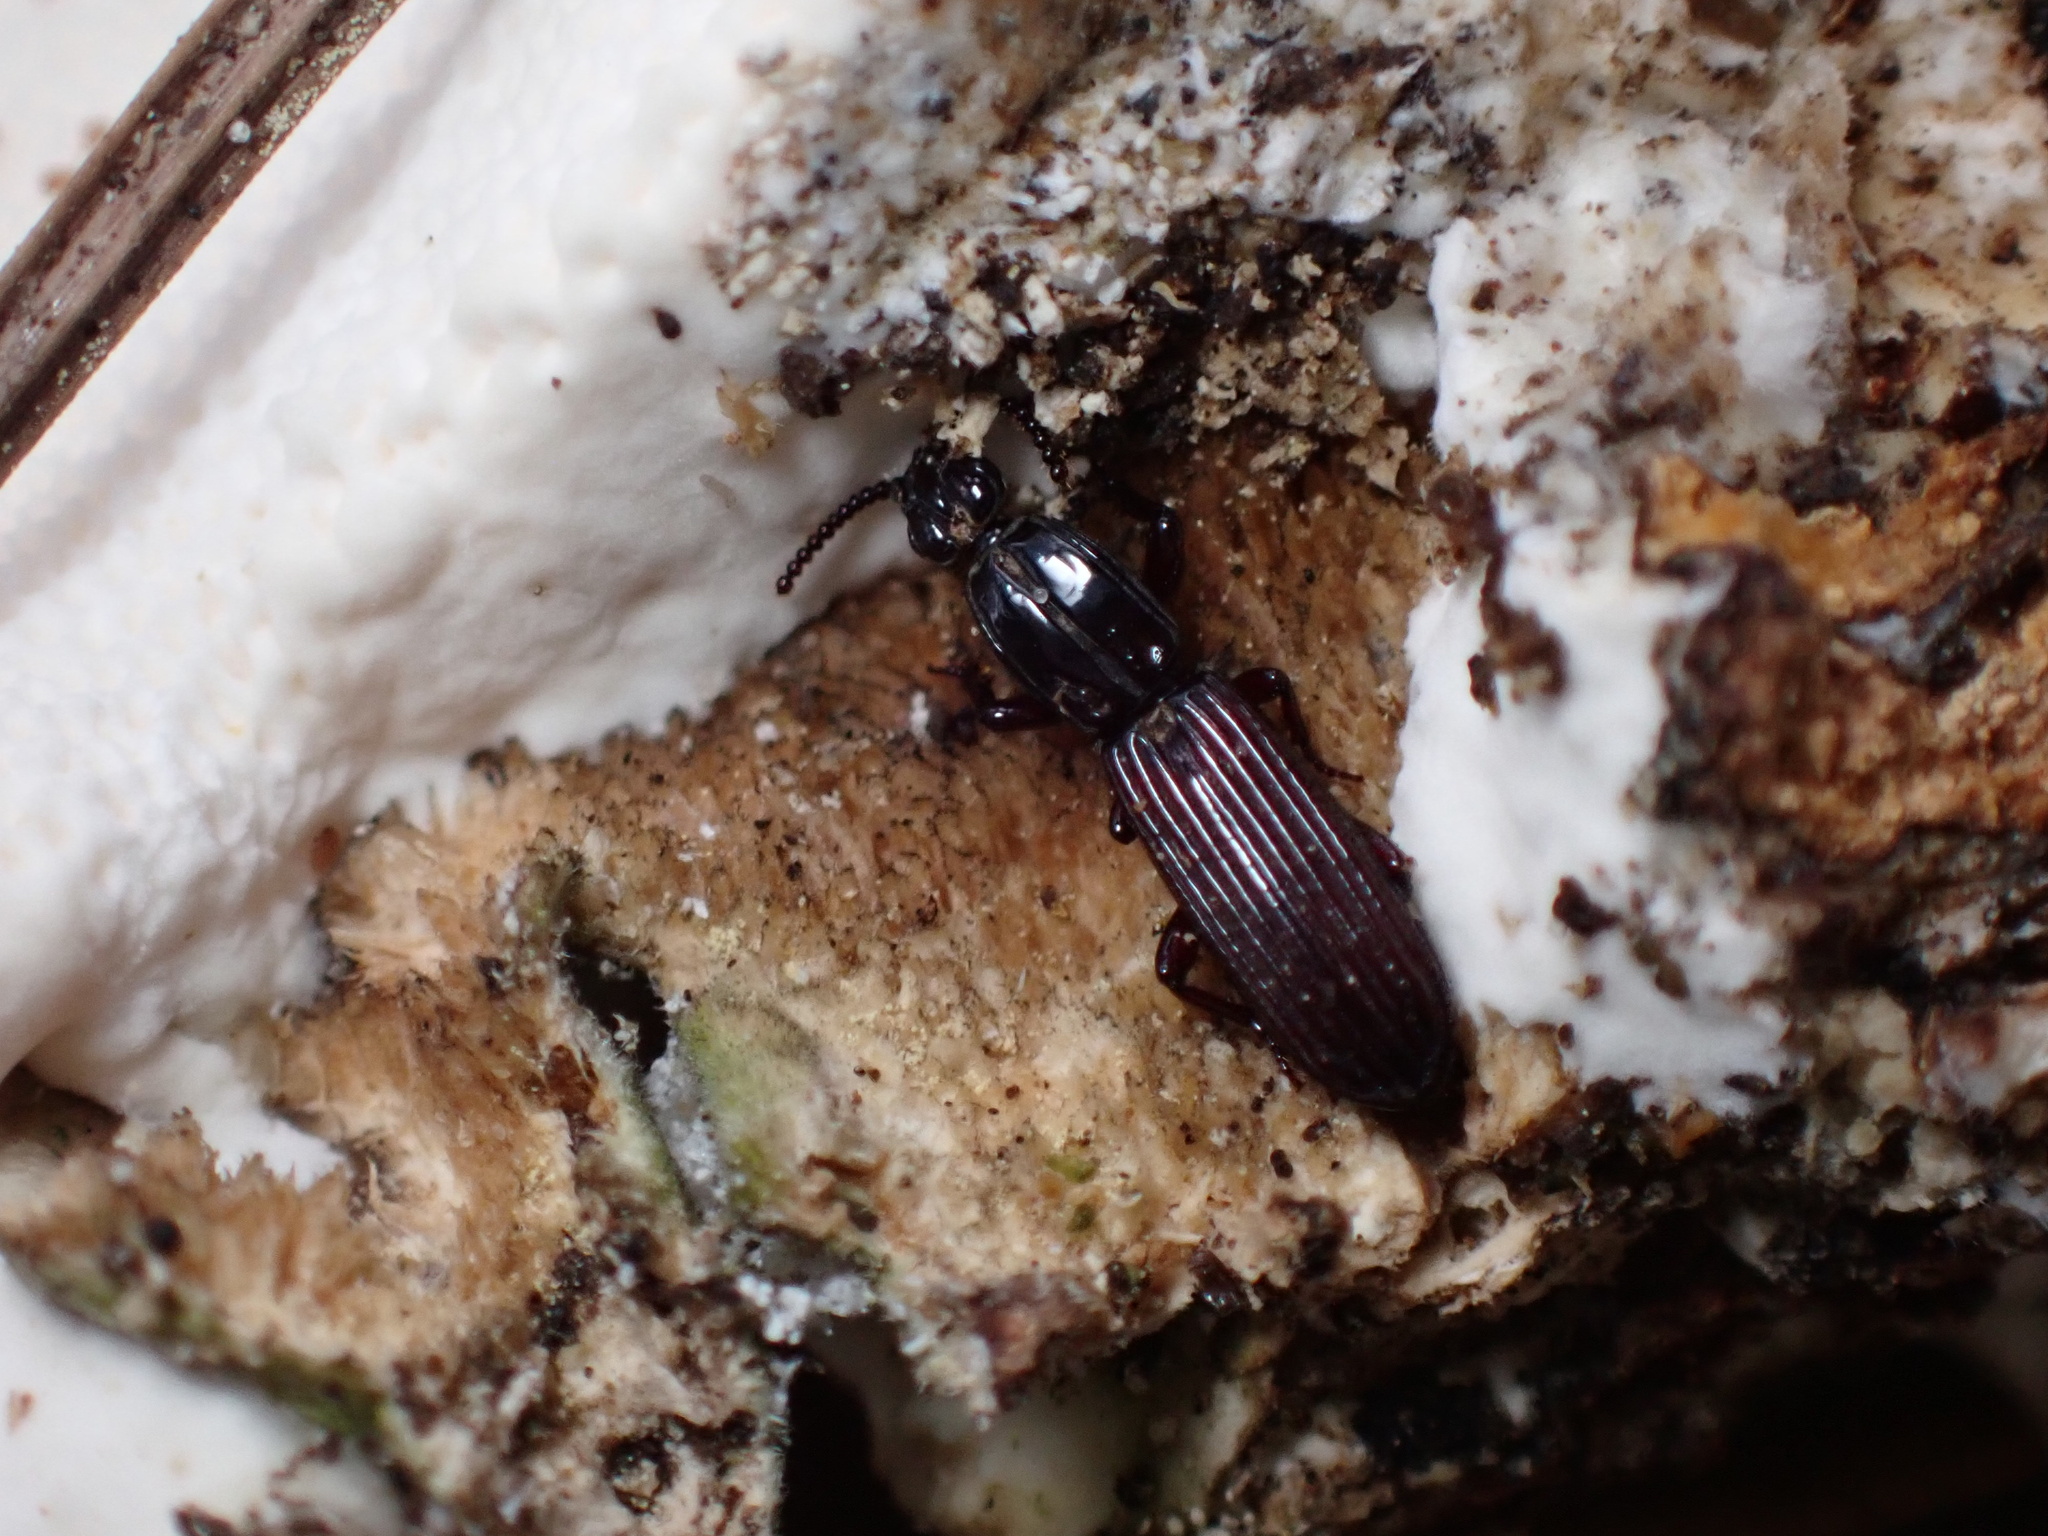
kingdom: Animalia
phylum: Arthropoda
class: Insecta
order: Coleoptera
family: Carabidae
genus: Clinidium
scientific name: Clinidium sculptile
